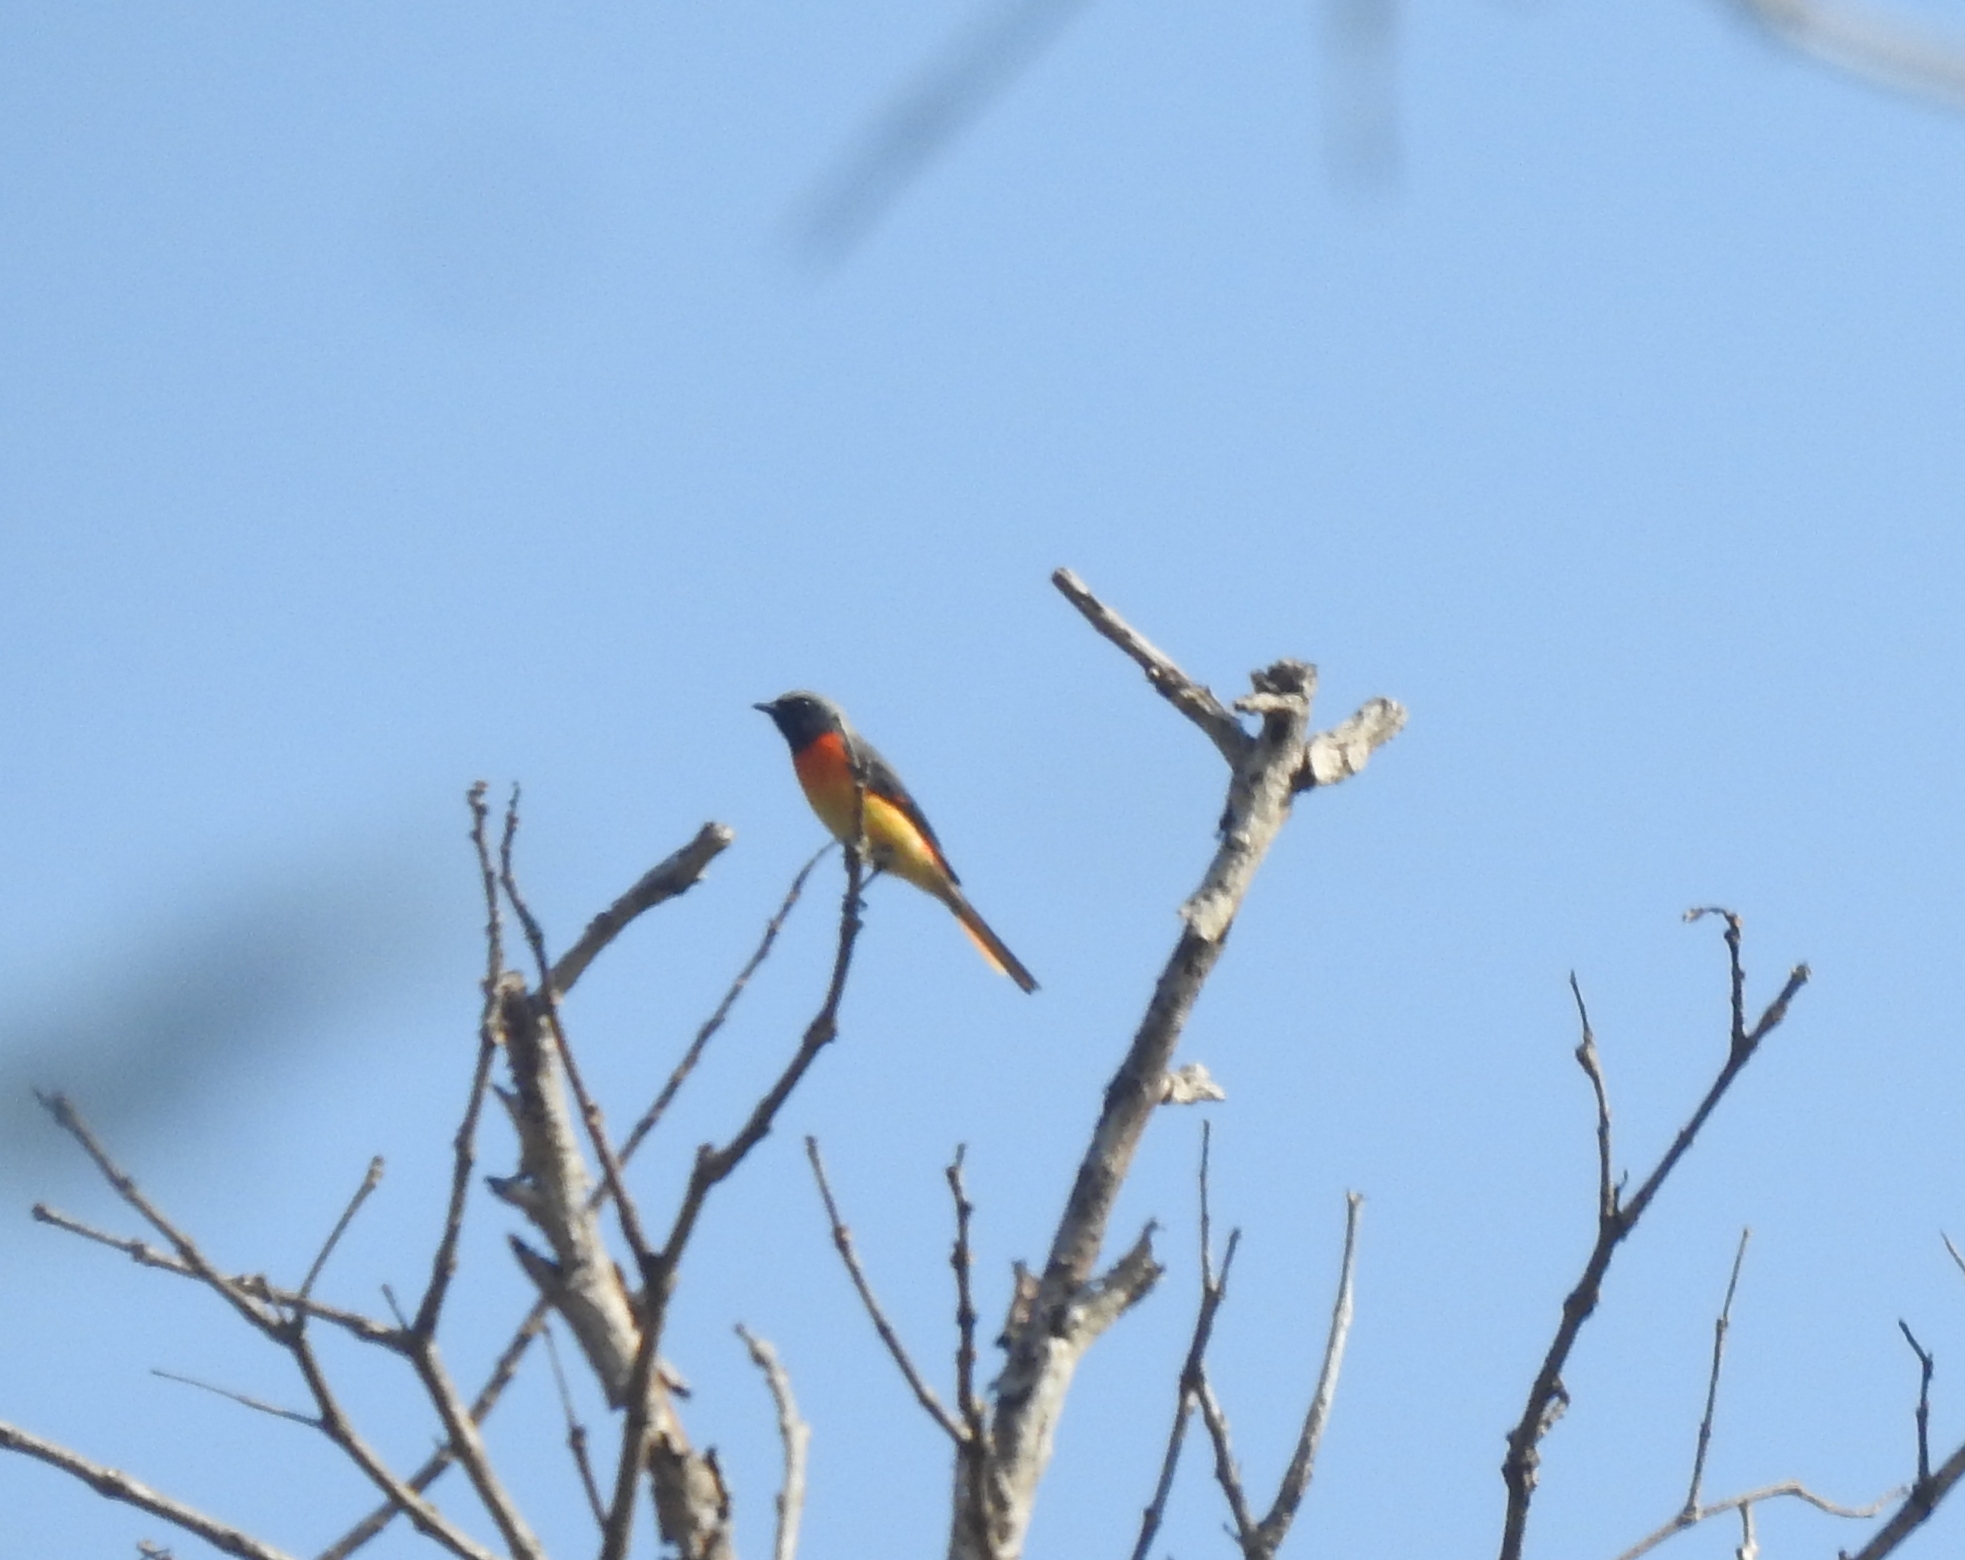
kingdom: Animalia
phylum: Chordata
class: Aves
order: Passeriformes
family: Campephagidae
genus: Pericrocotus
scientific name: Pericrocotus cinnamomeus
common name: Small minivet
